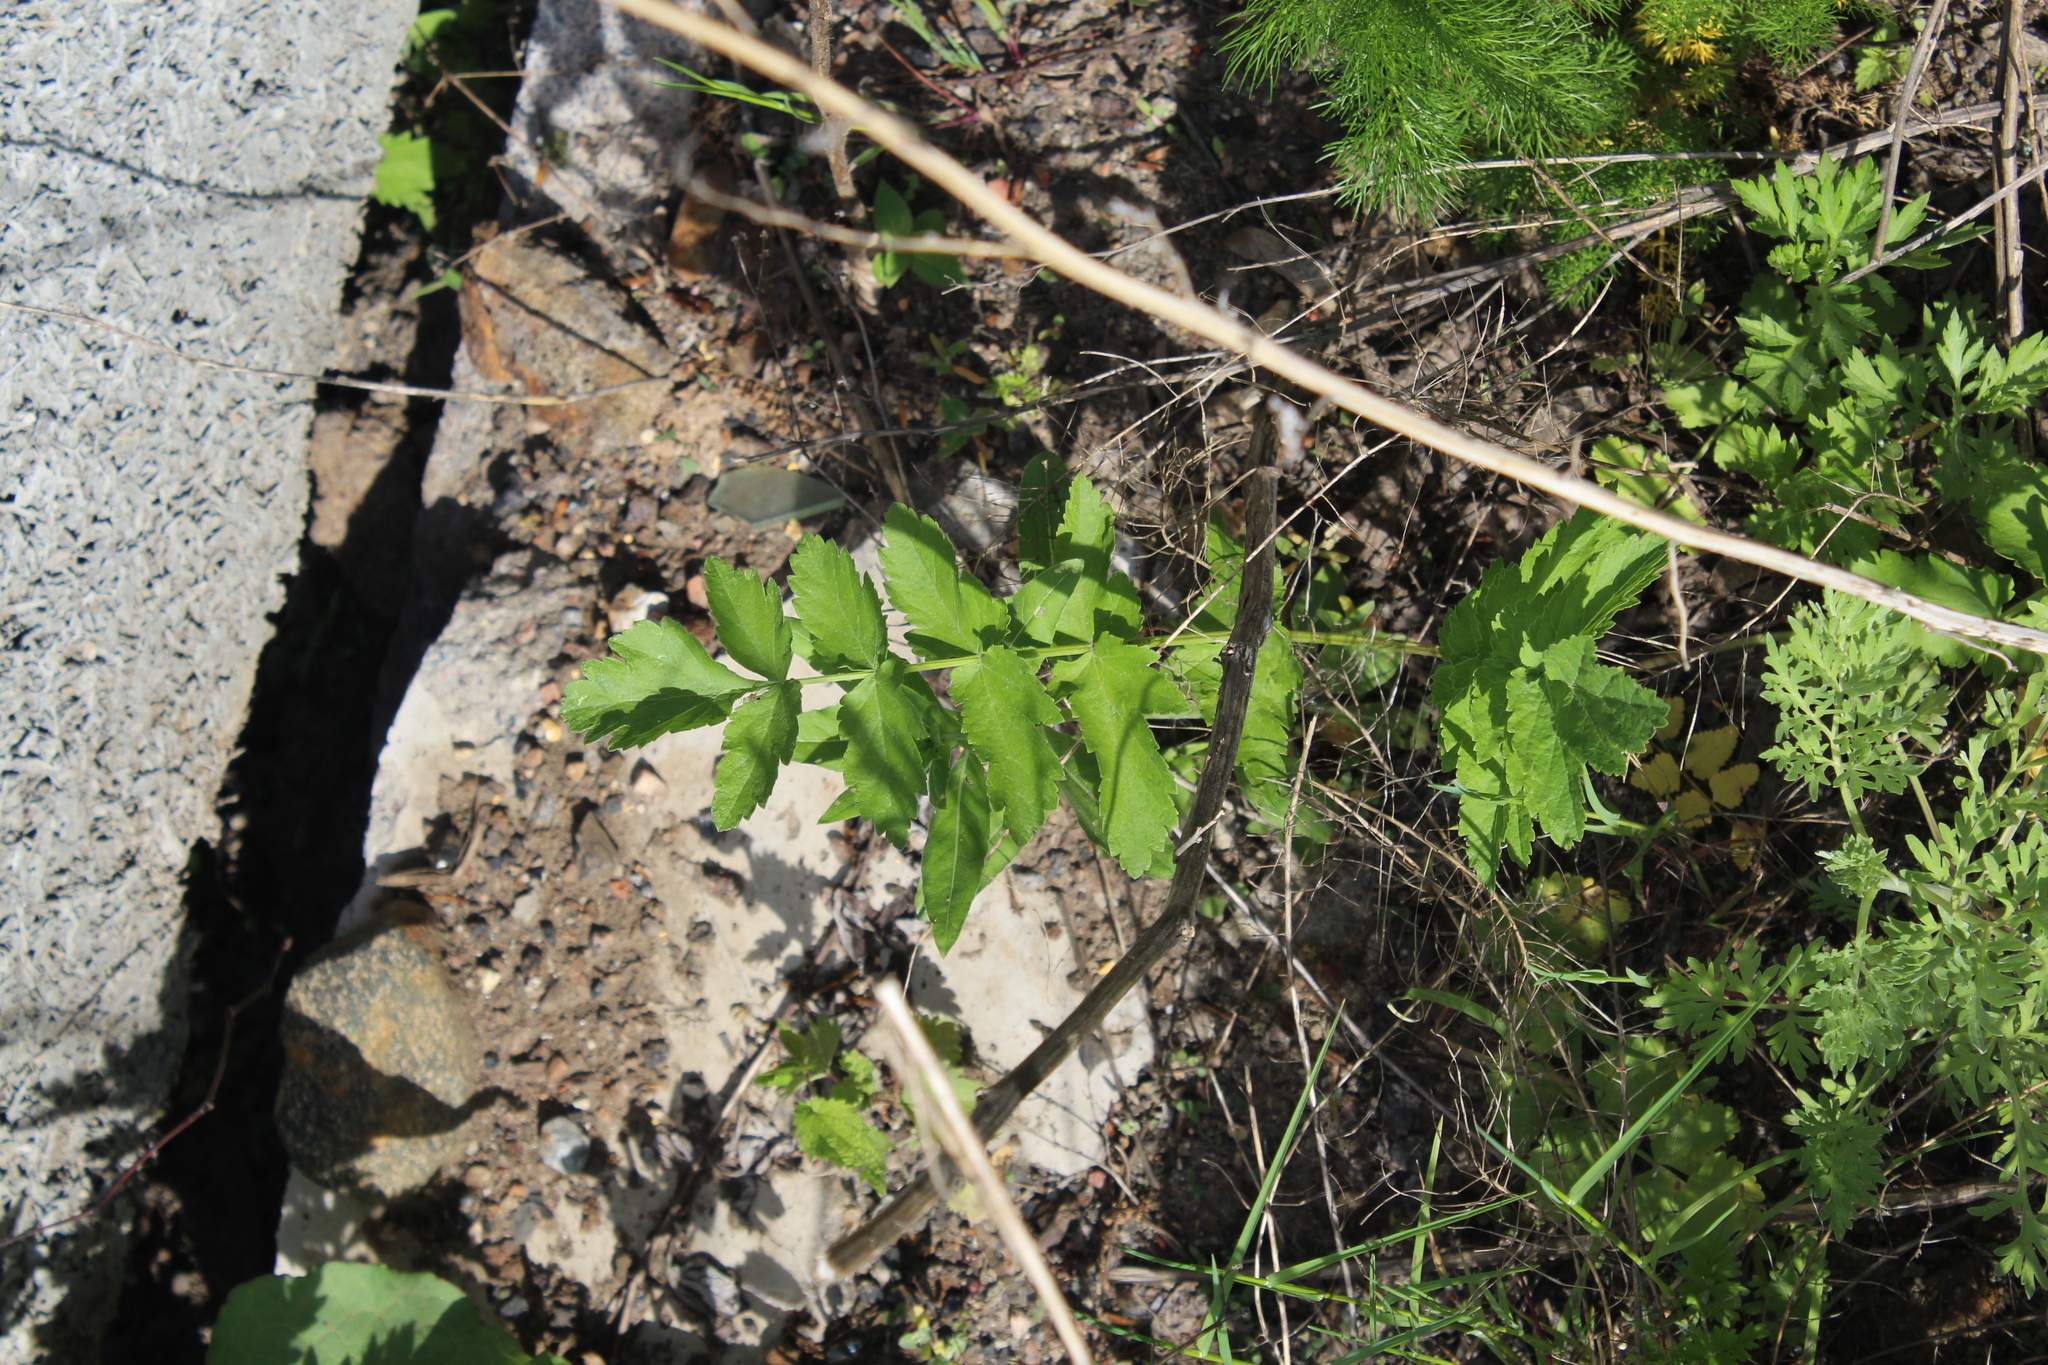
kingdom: Plantae
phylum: Tracheophyta
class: Magnoliopsida
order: Apiales
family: Apiaceae
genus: Pastinaca
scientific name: Pastinaca sativa
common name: Wild parsnip
